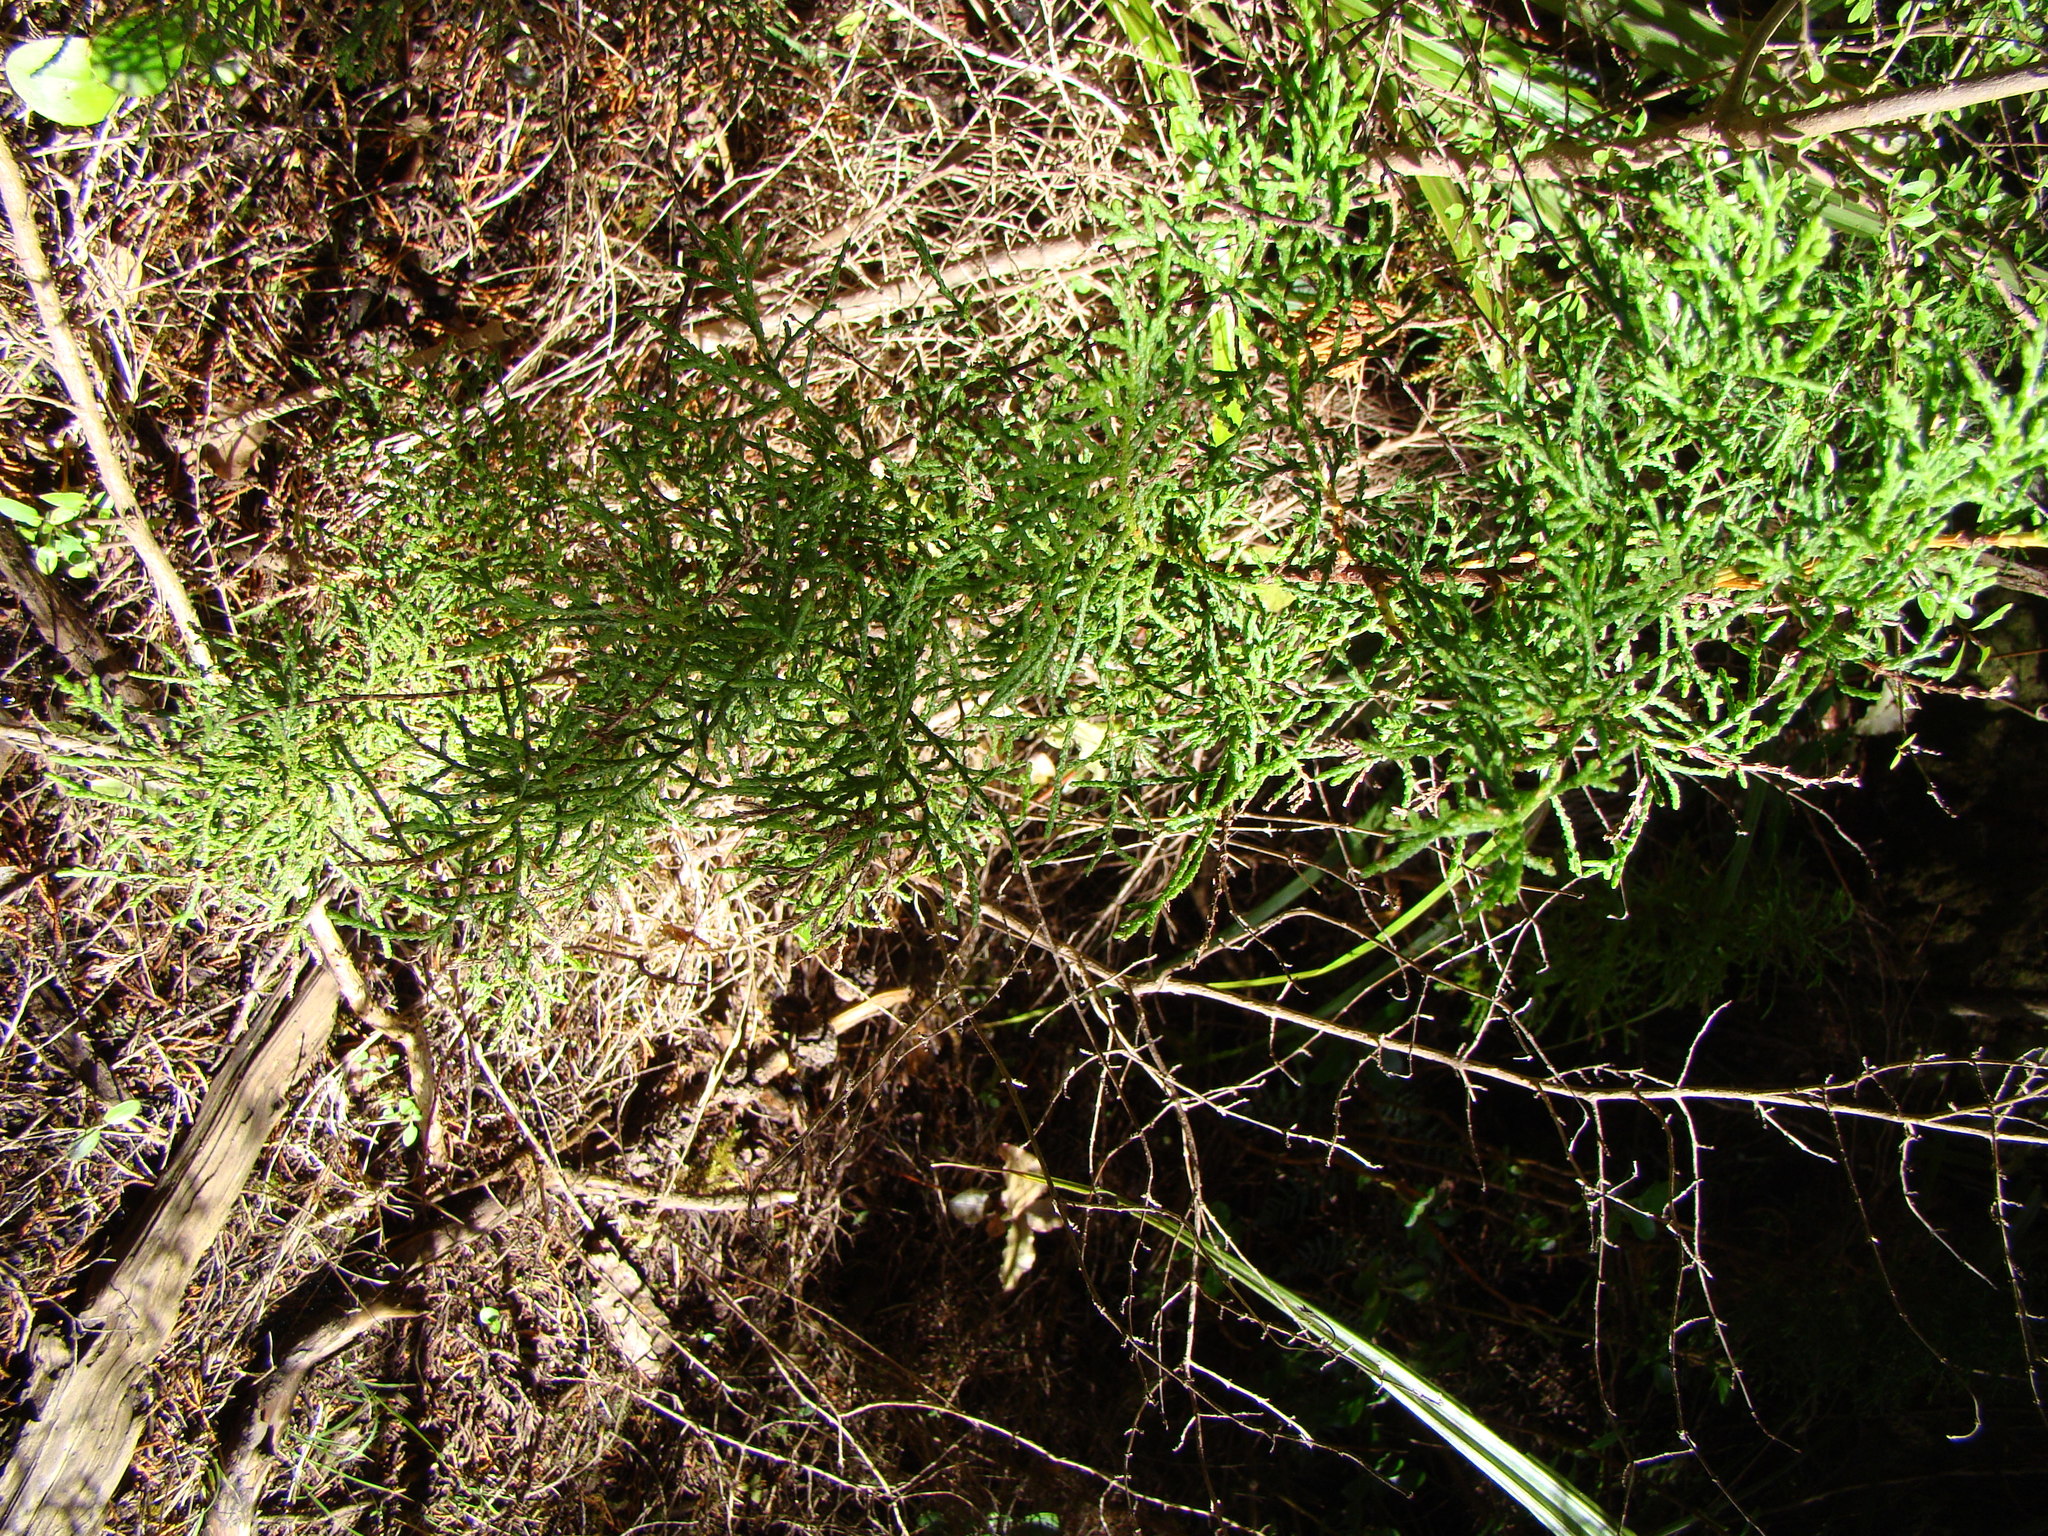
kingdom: Plantae
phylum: Tracheophyta
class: Pinopsida
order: Pinales
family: Podocarpaceae
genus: Lepidothamnus
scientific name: Lepidothamnus intermedius
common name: Yellow silver pine
